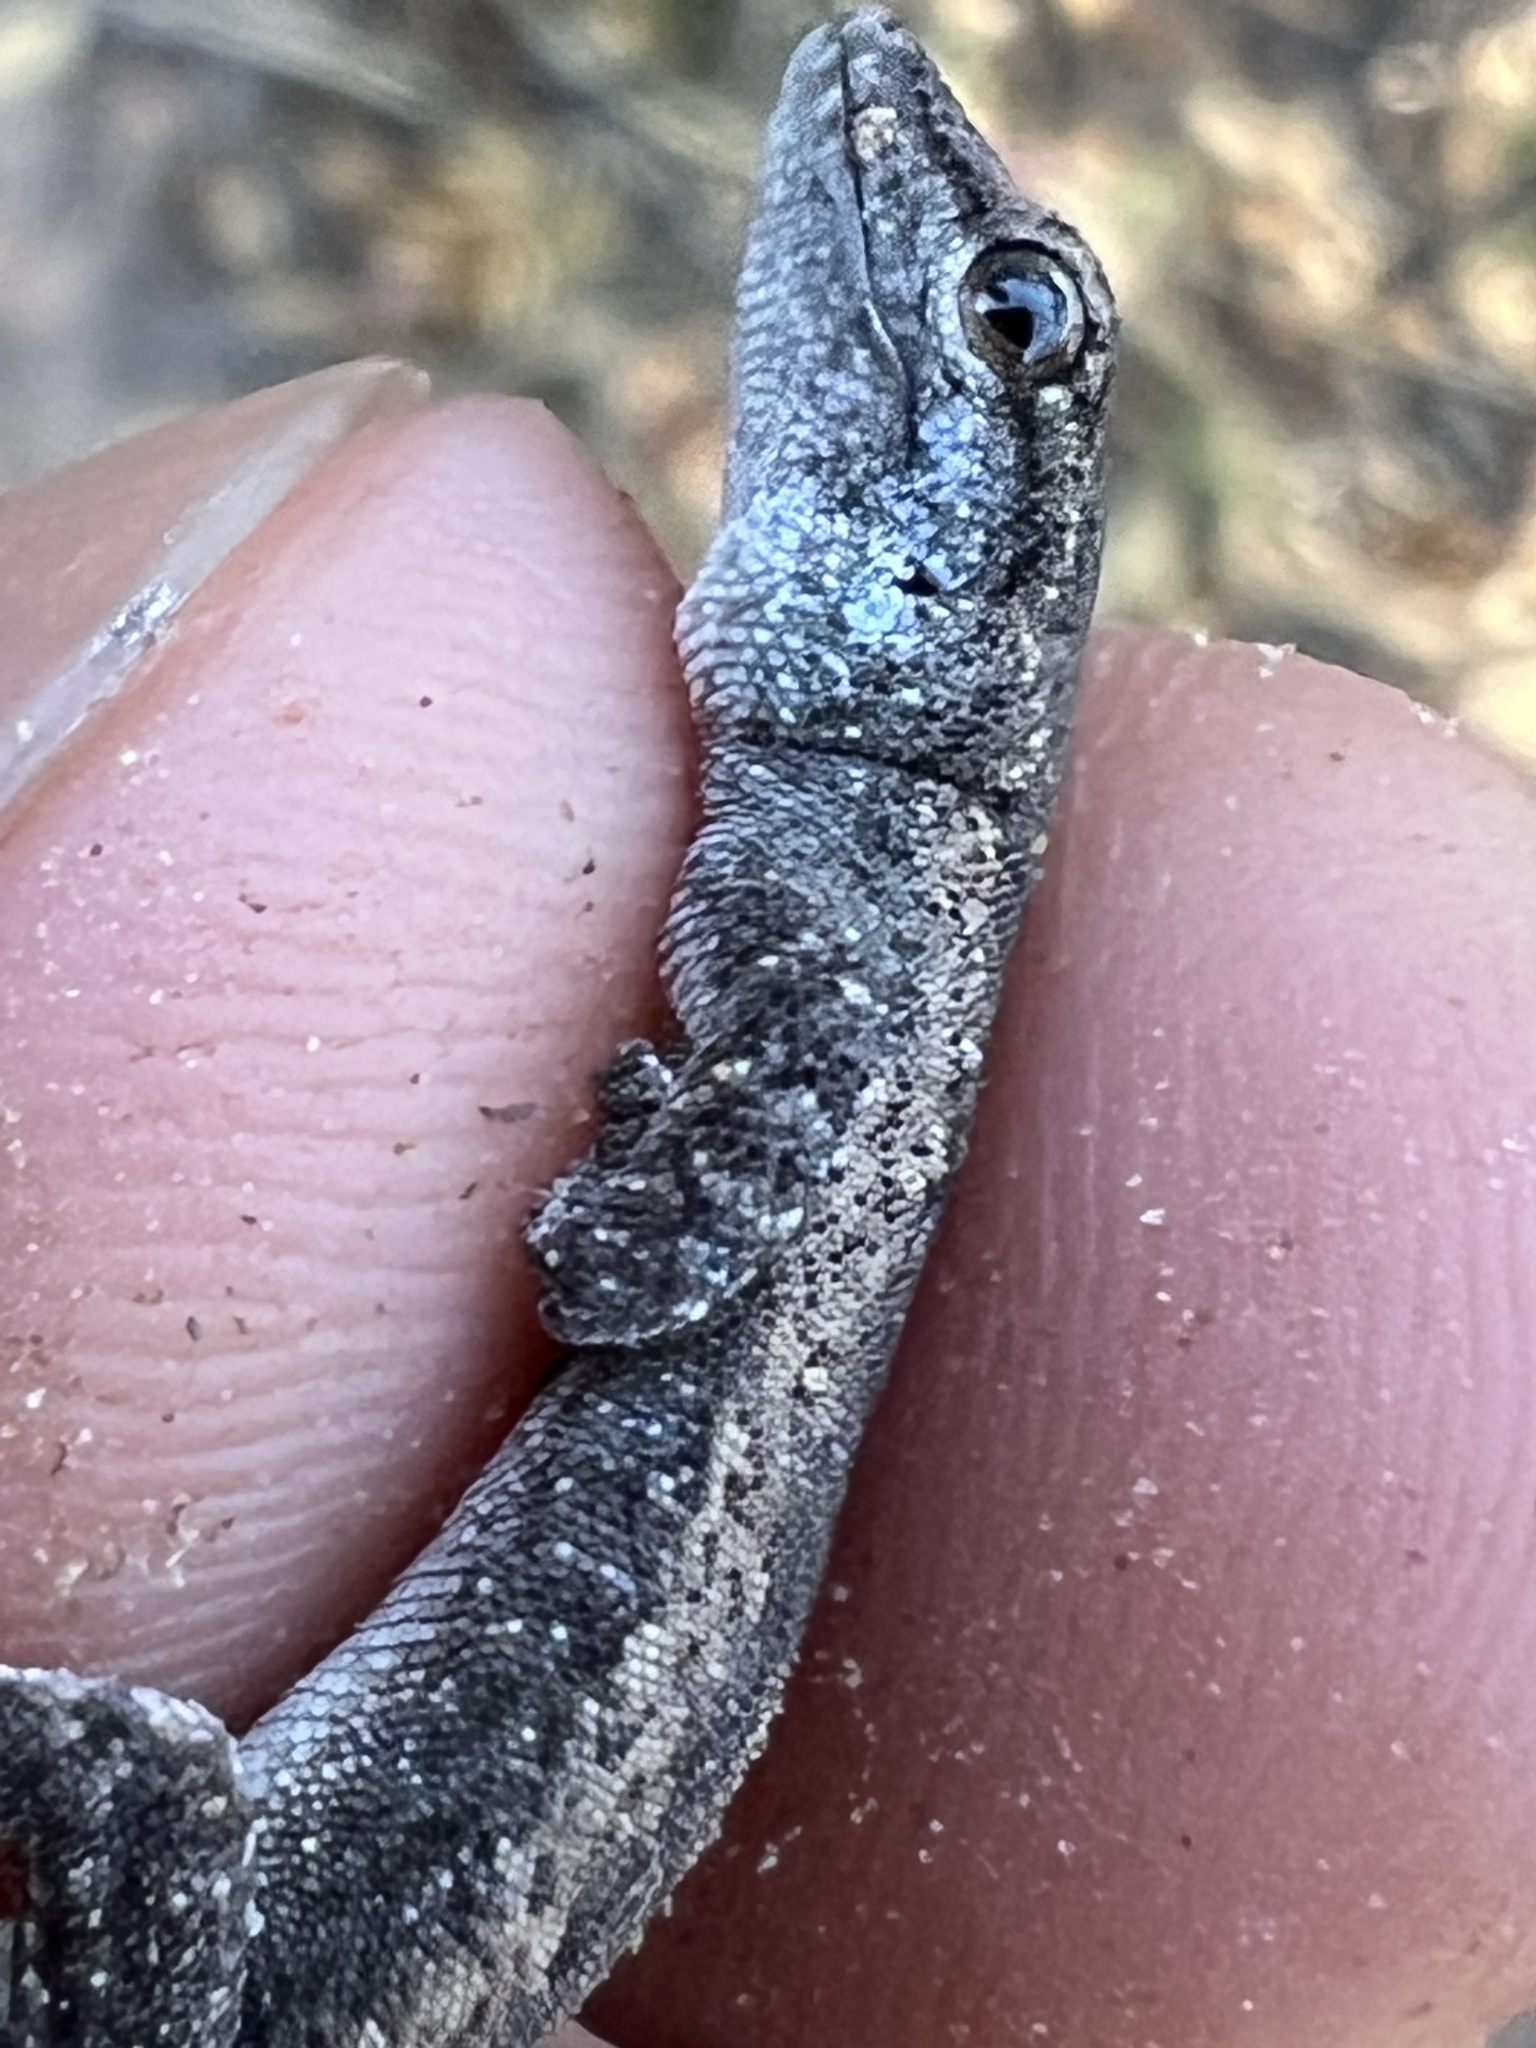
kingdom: Animalia
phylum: Chordata
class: Squamata
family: Gekkonidae
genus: Lygodactylus
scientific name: Lygodactylus wetzeli
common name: South american dwarf gecko
